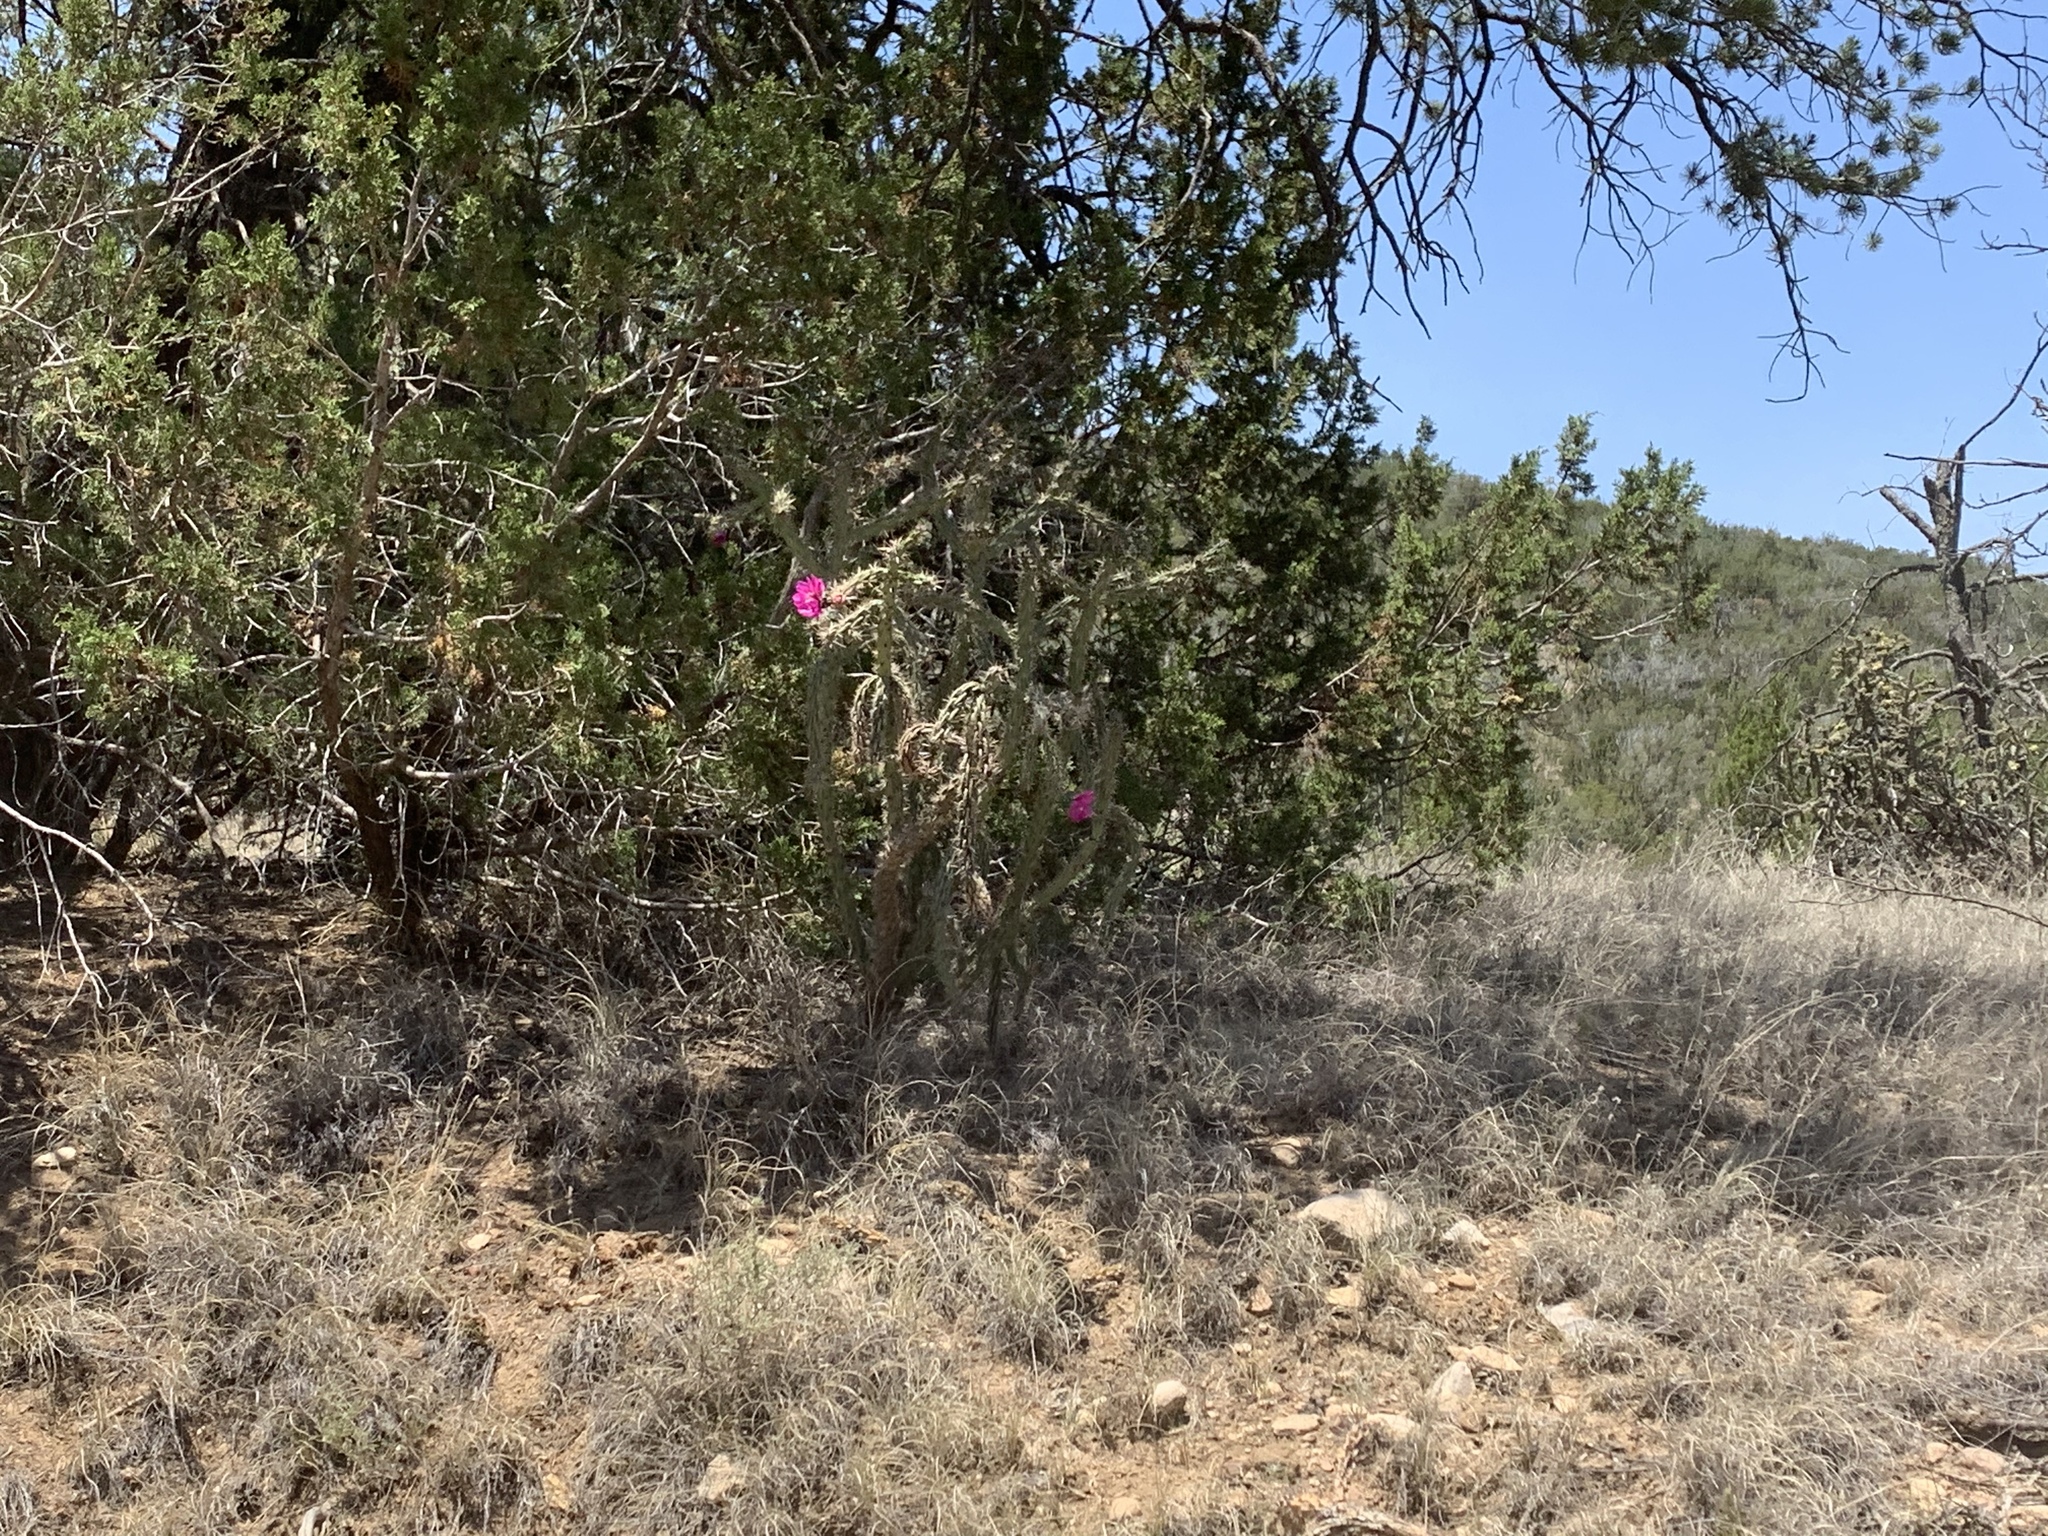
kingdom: Plantae
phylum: Tracheophyta
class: Magnoliopsida
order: Caryophyllales
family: Cactaceae
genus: Cylindropuntia
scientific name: Cylindropuntia imbricata
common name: Candelabrum cactus
